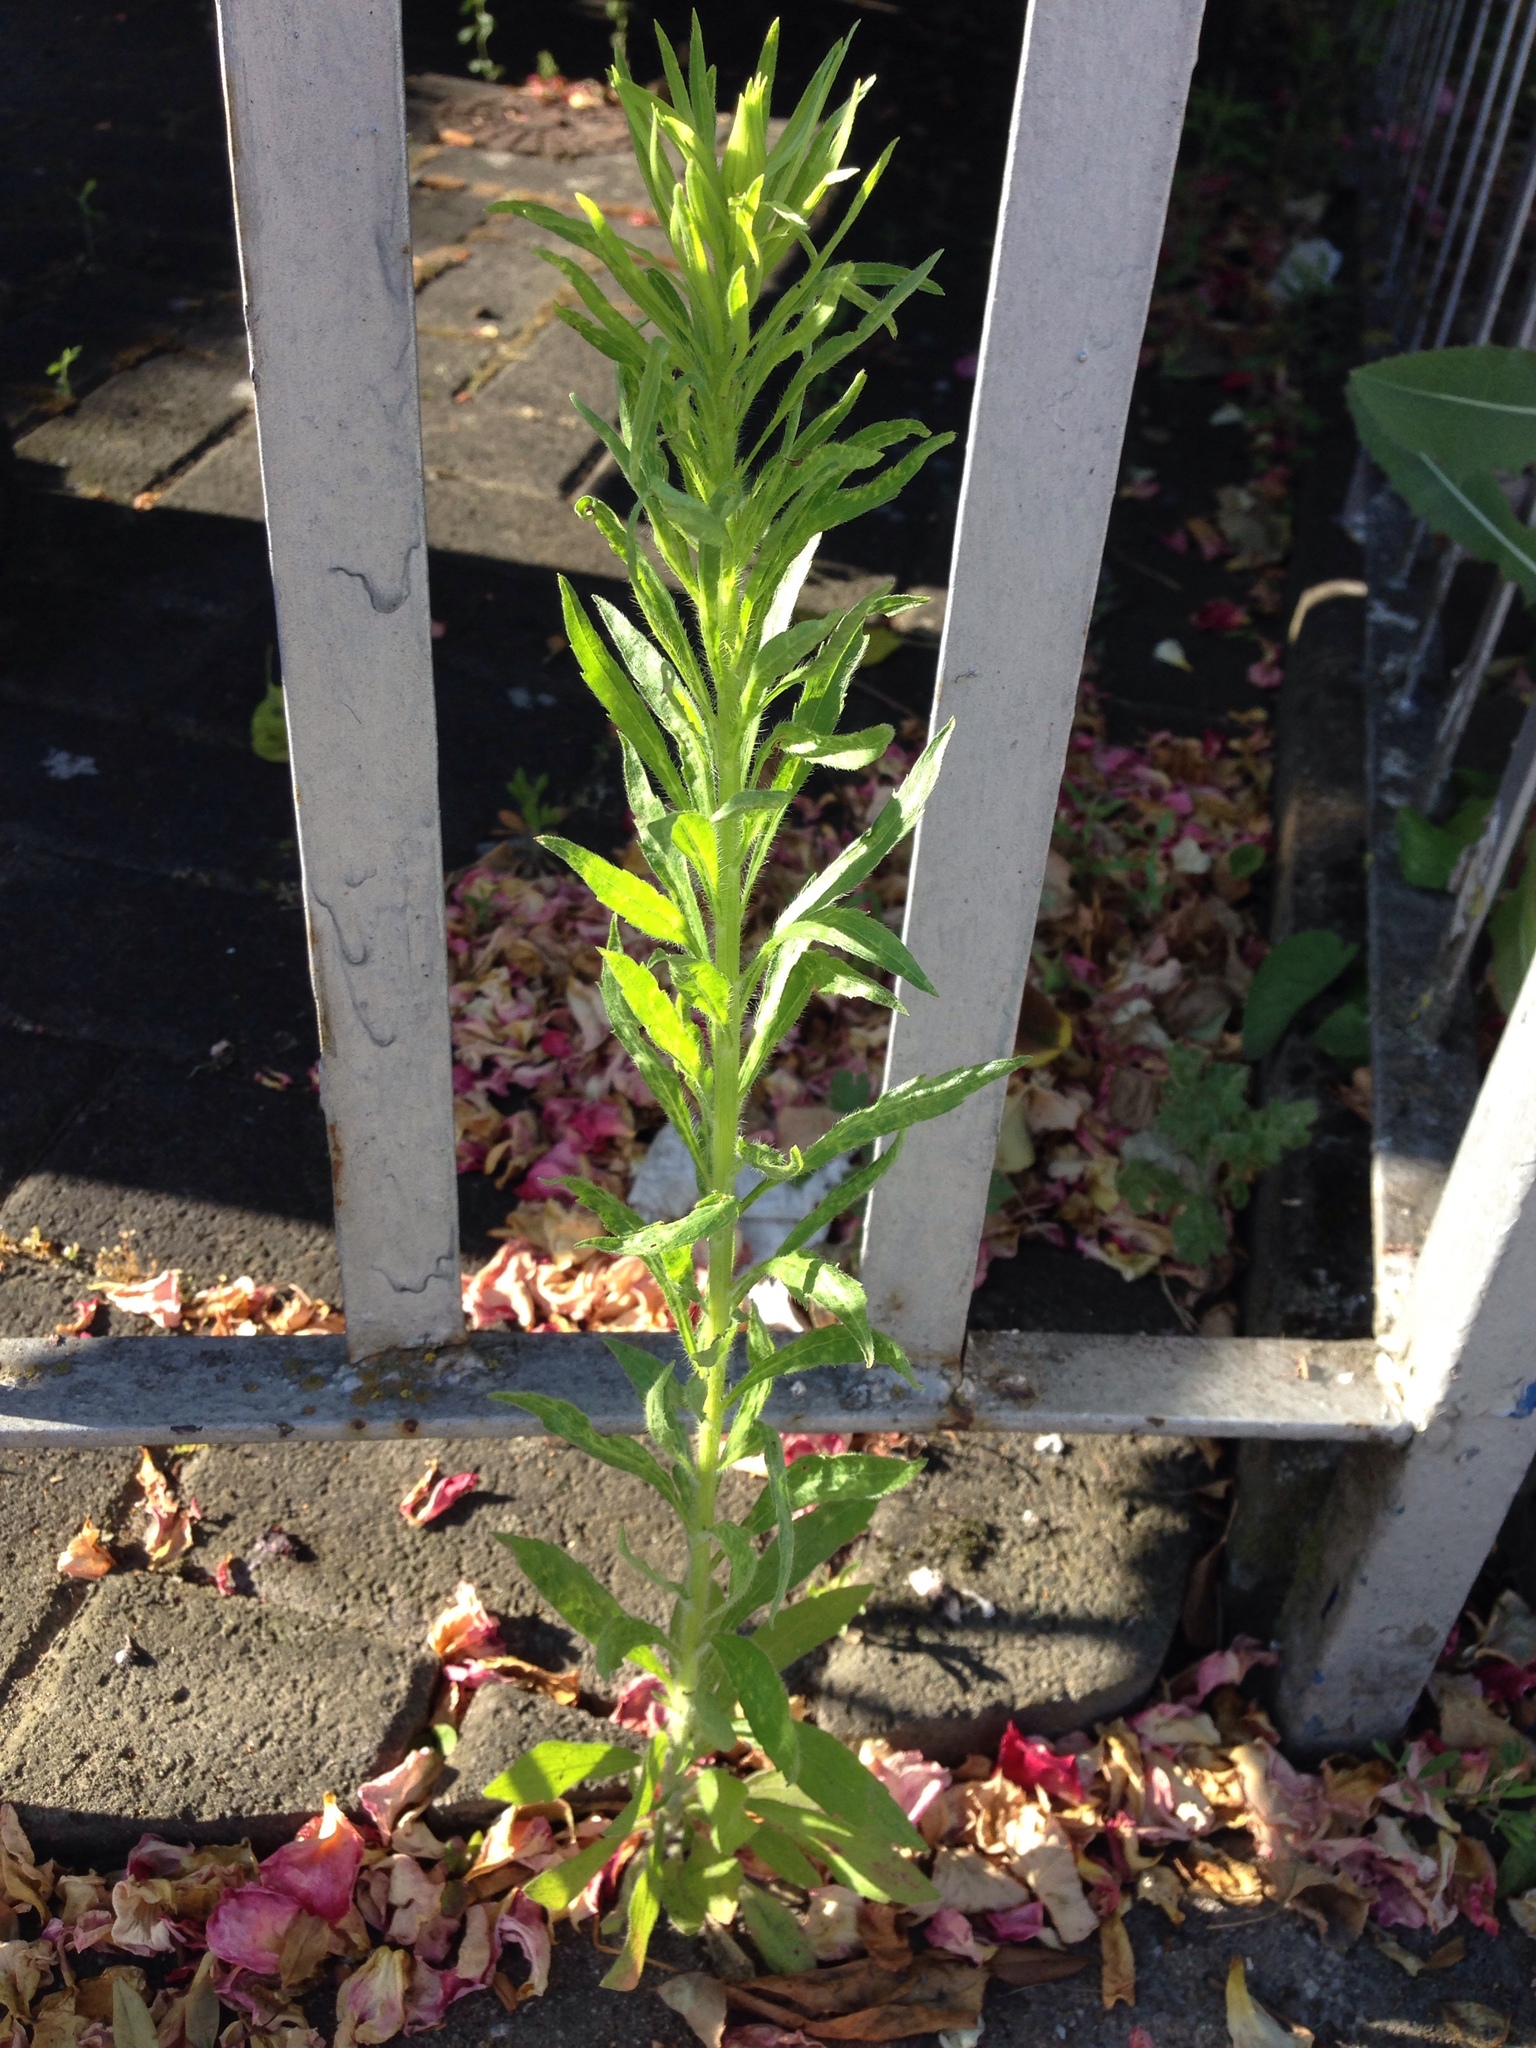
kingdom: Plantae
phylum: Tracheophyta
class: Magnoliopsida
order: Asterales
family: Asteraceae
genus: Erigeron
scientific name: Erigeron canadensis
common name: Canadian fleabane
